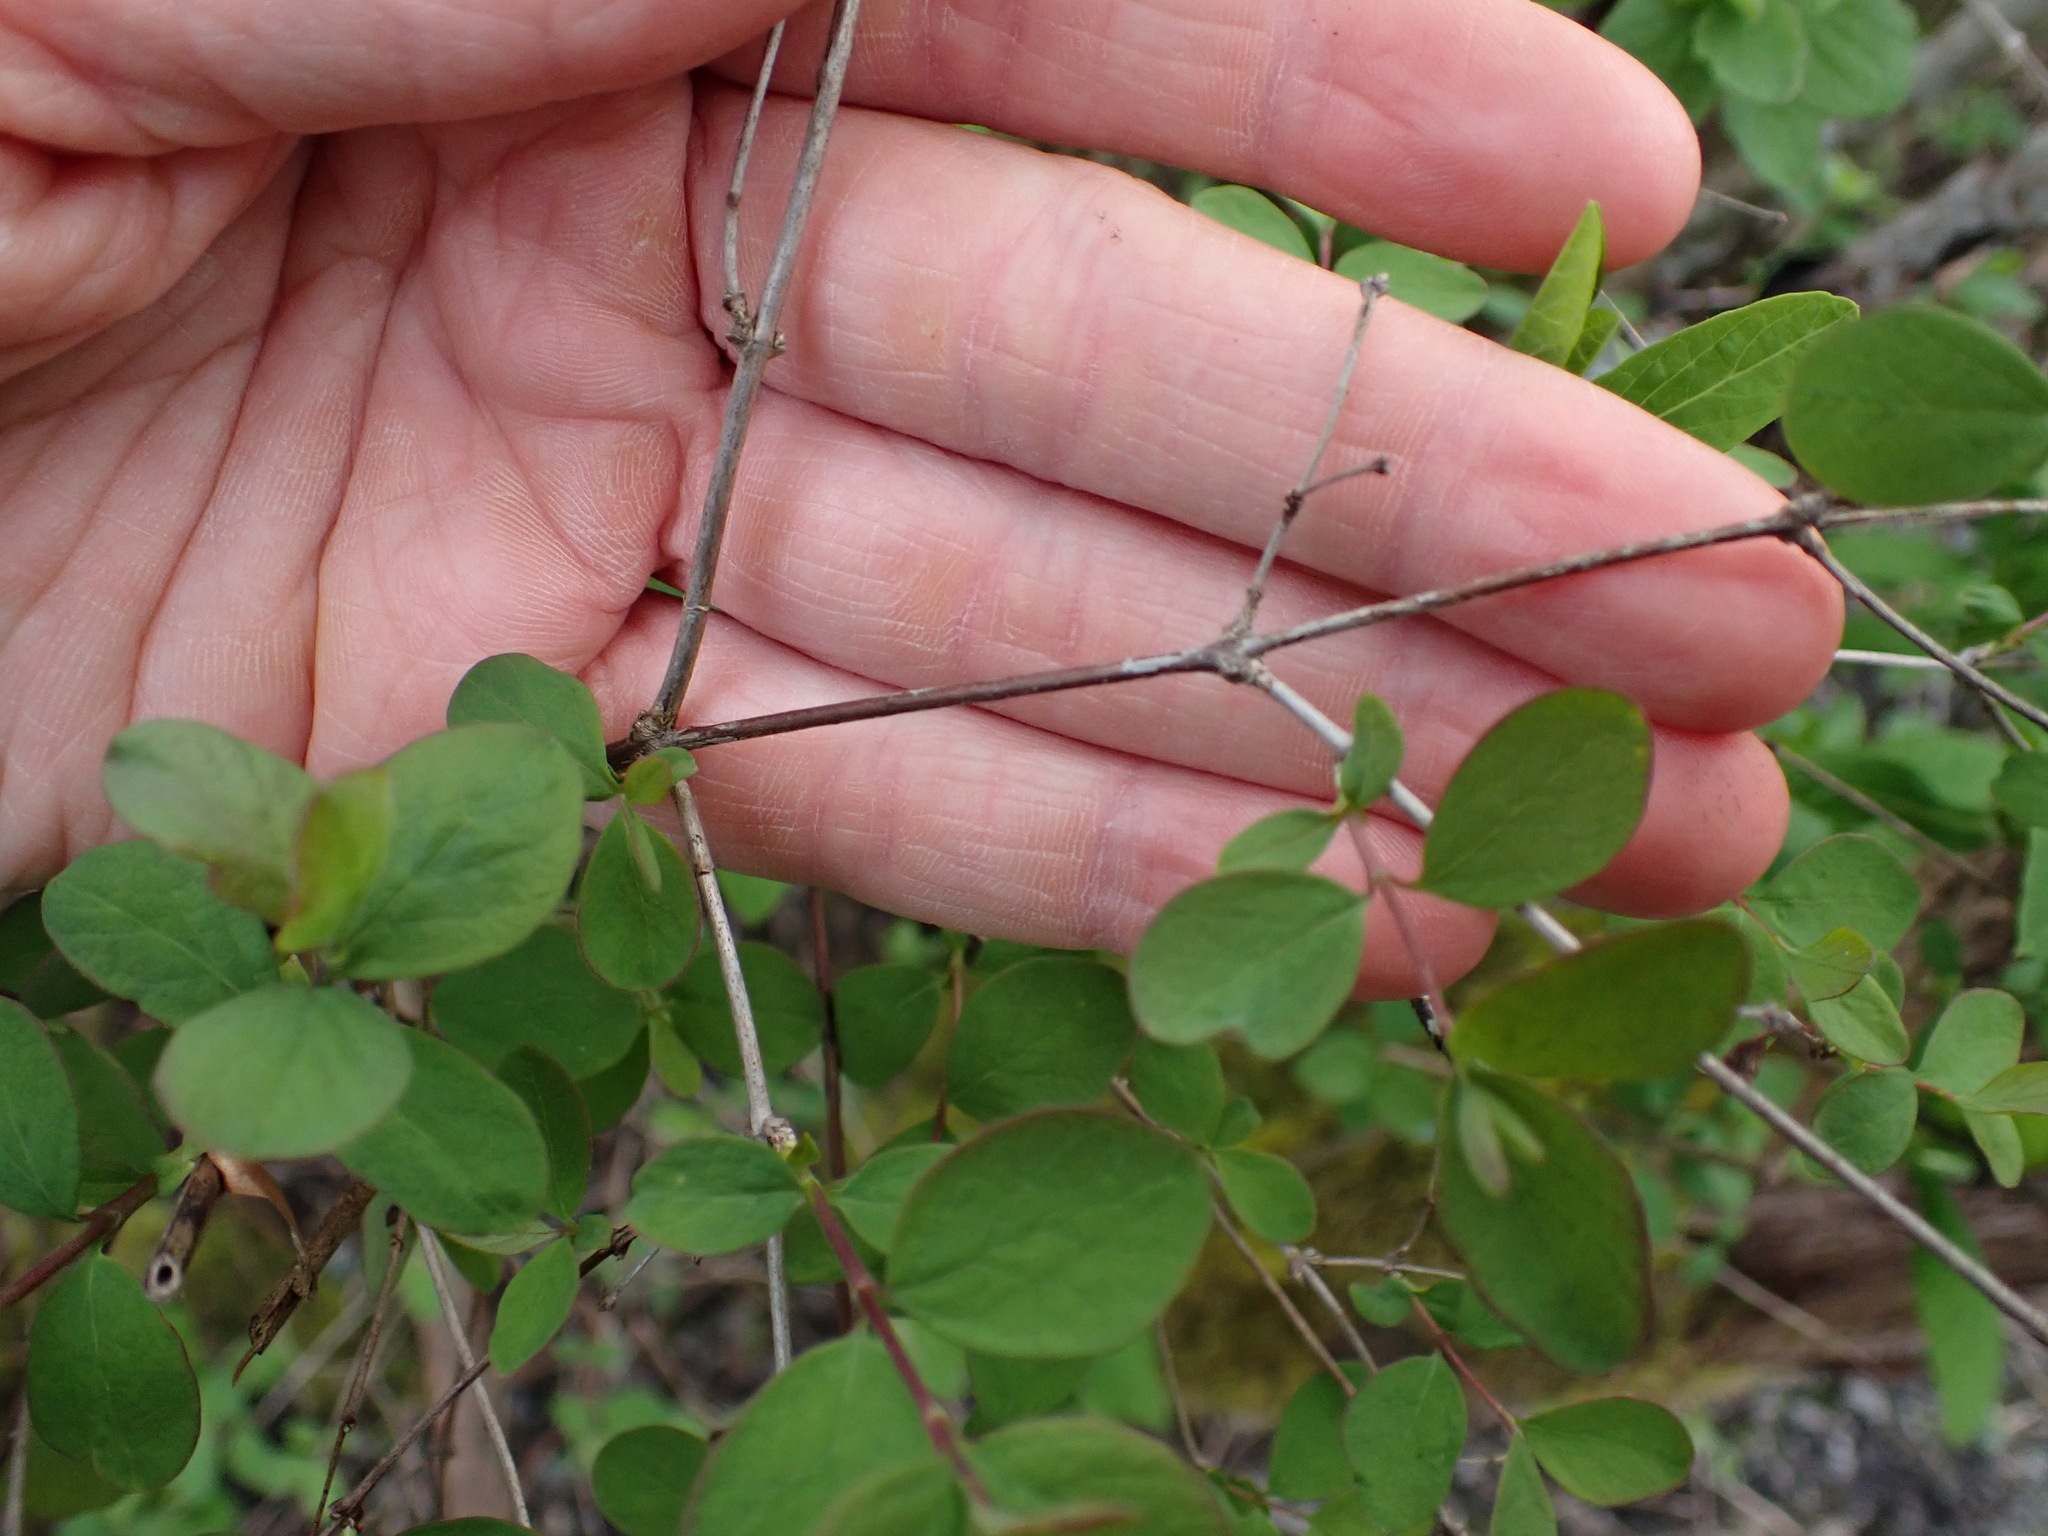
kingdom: Plantae
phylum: Tracheophyta
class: Magnoliopsida
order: Dipsacales
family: Caprifoliaceae
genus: Symphoricarpos
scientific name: Symphoricarpos albus
